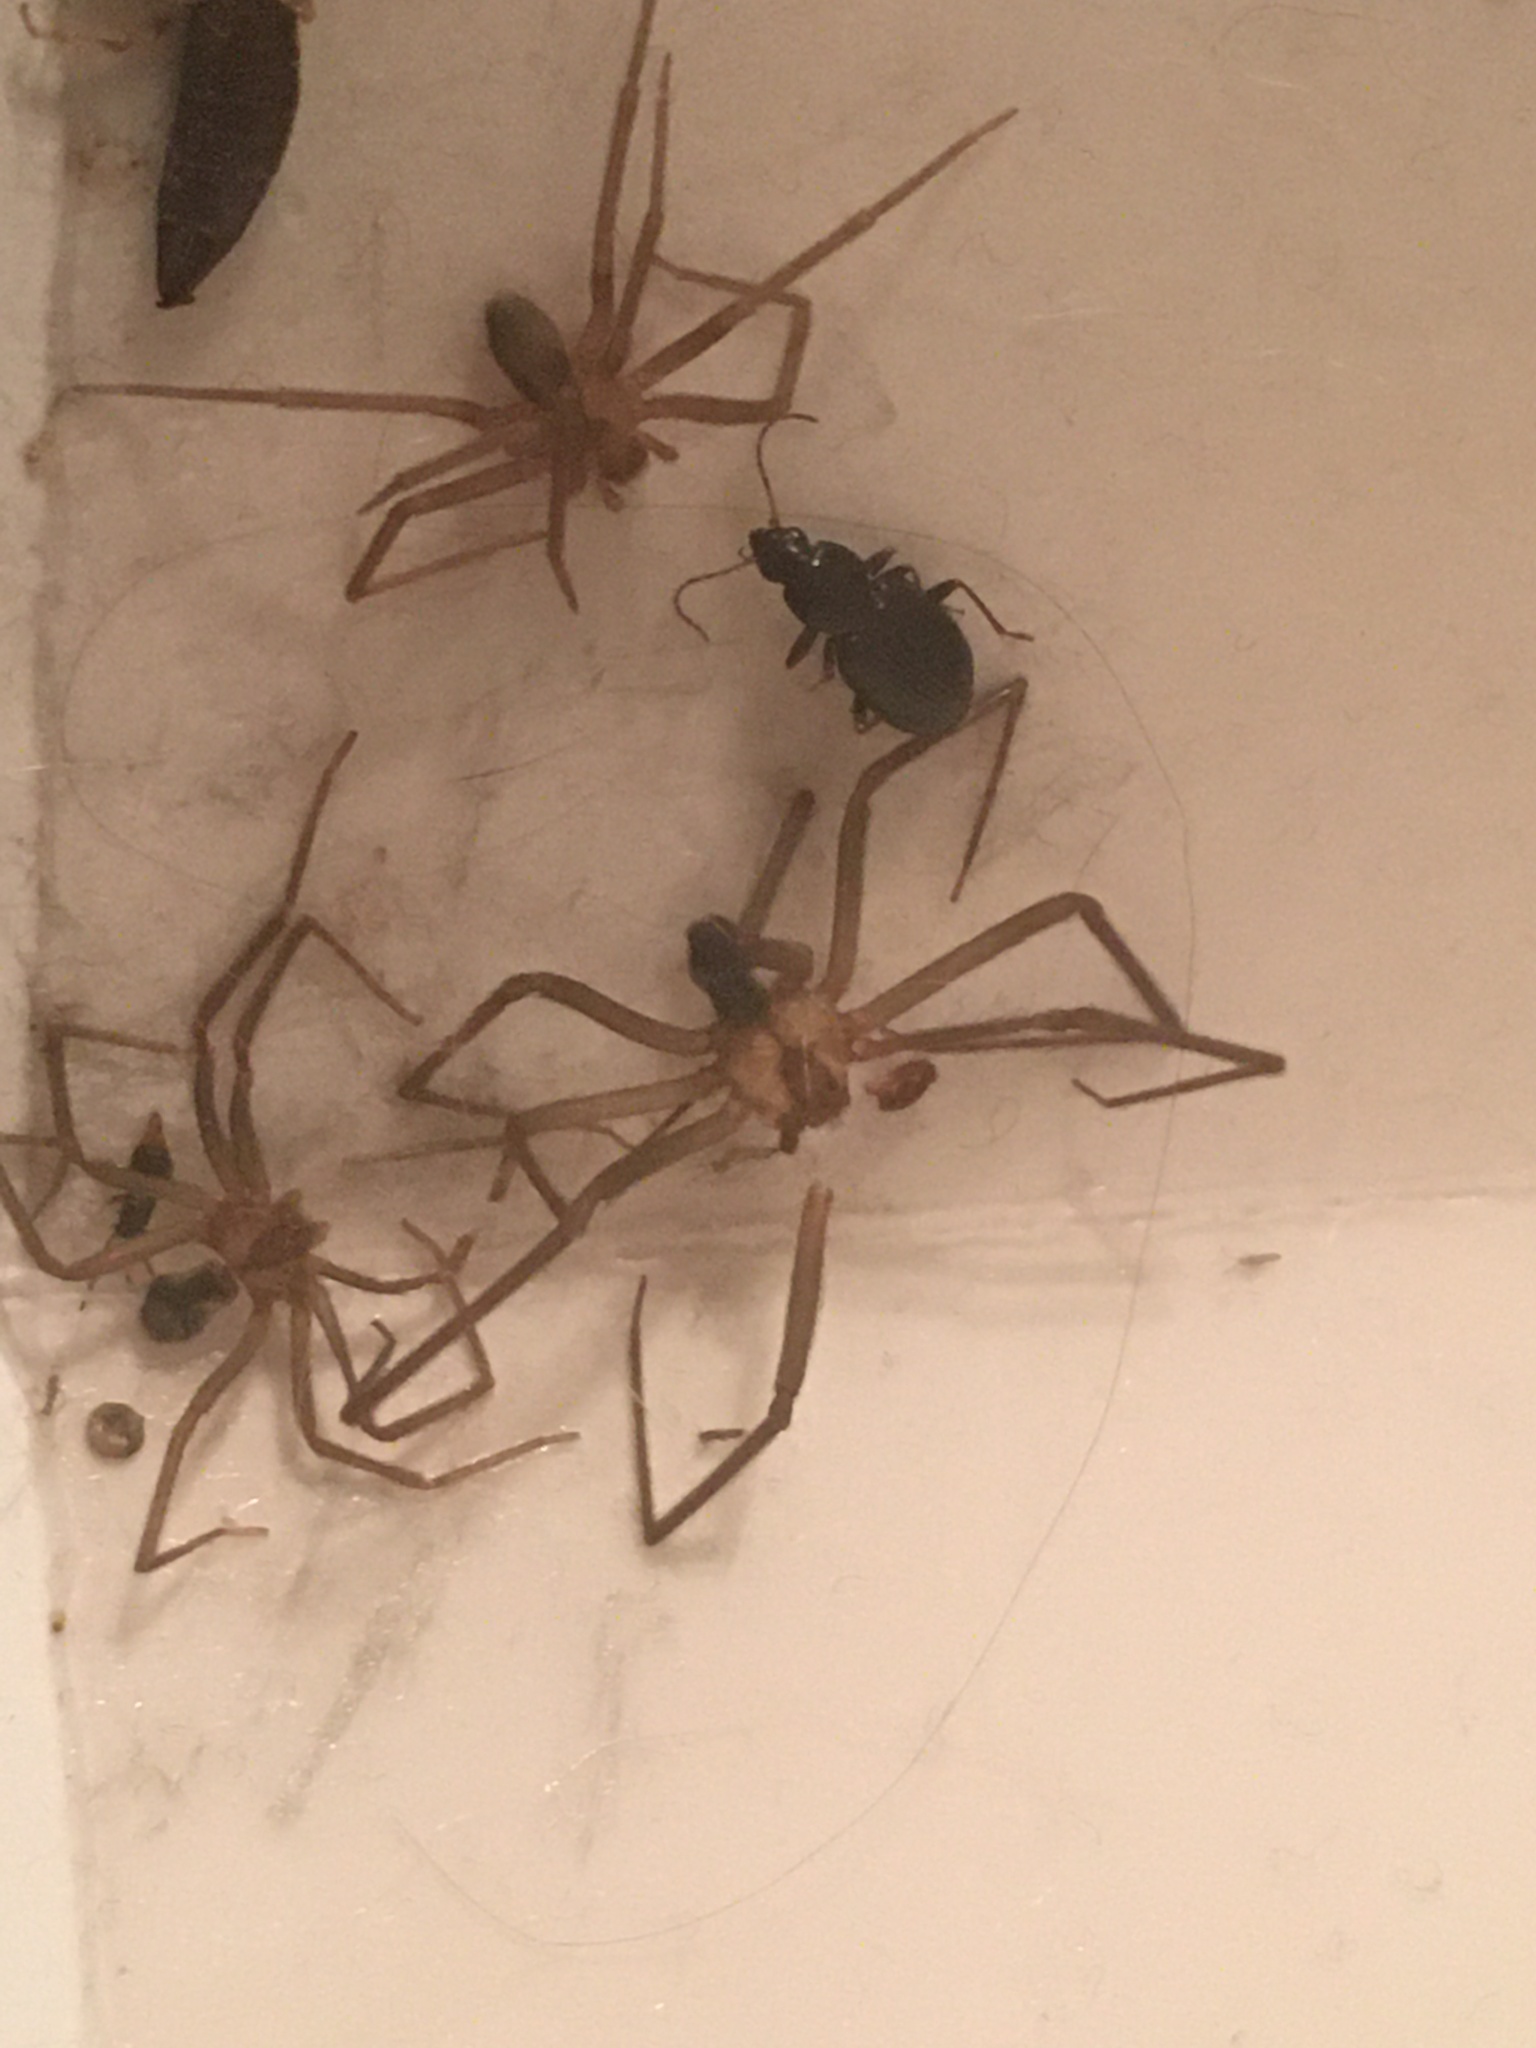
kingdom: Animalia
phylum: Arthropoda
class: Arachnida
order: Araneae
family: Sicariidae
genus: Loxosceles
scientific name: Loxosceles reclusa
